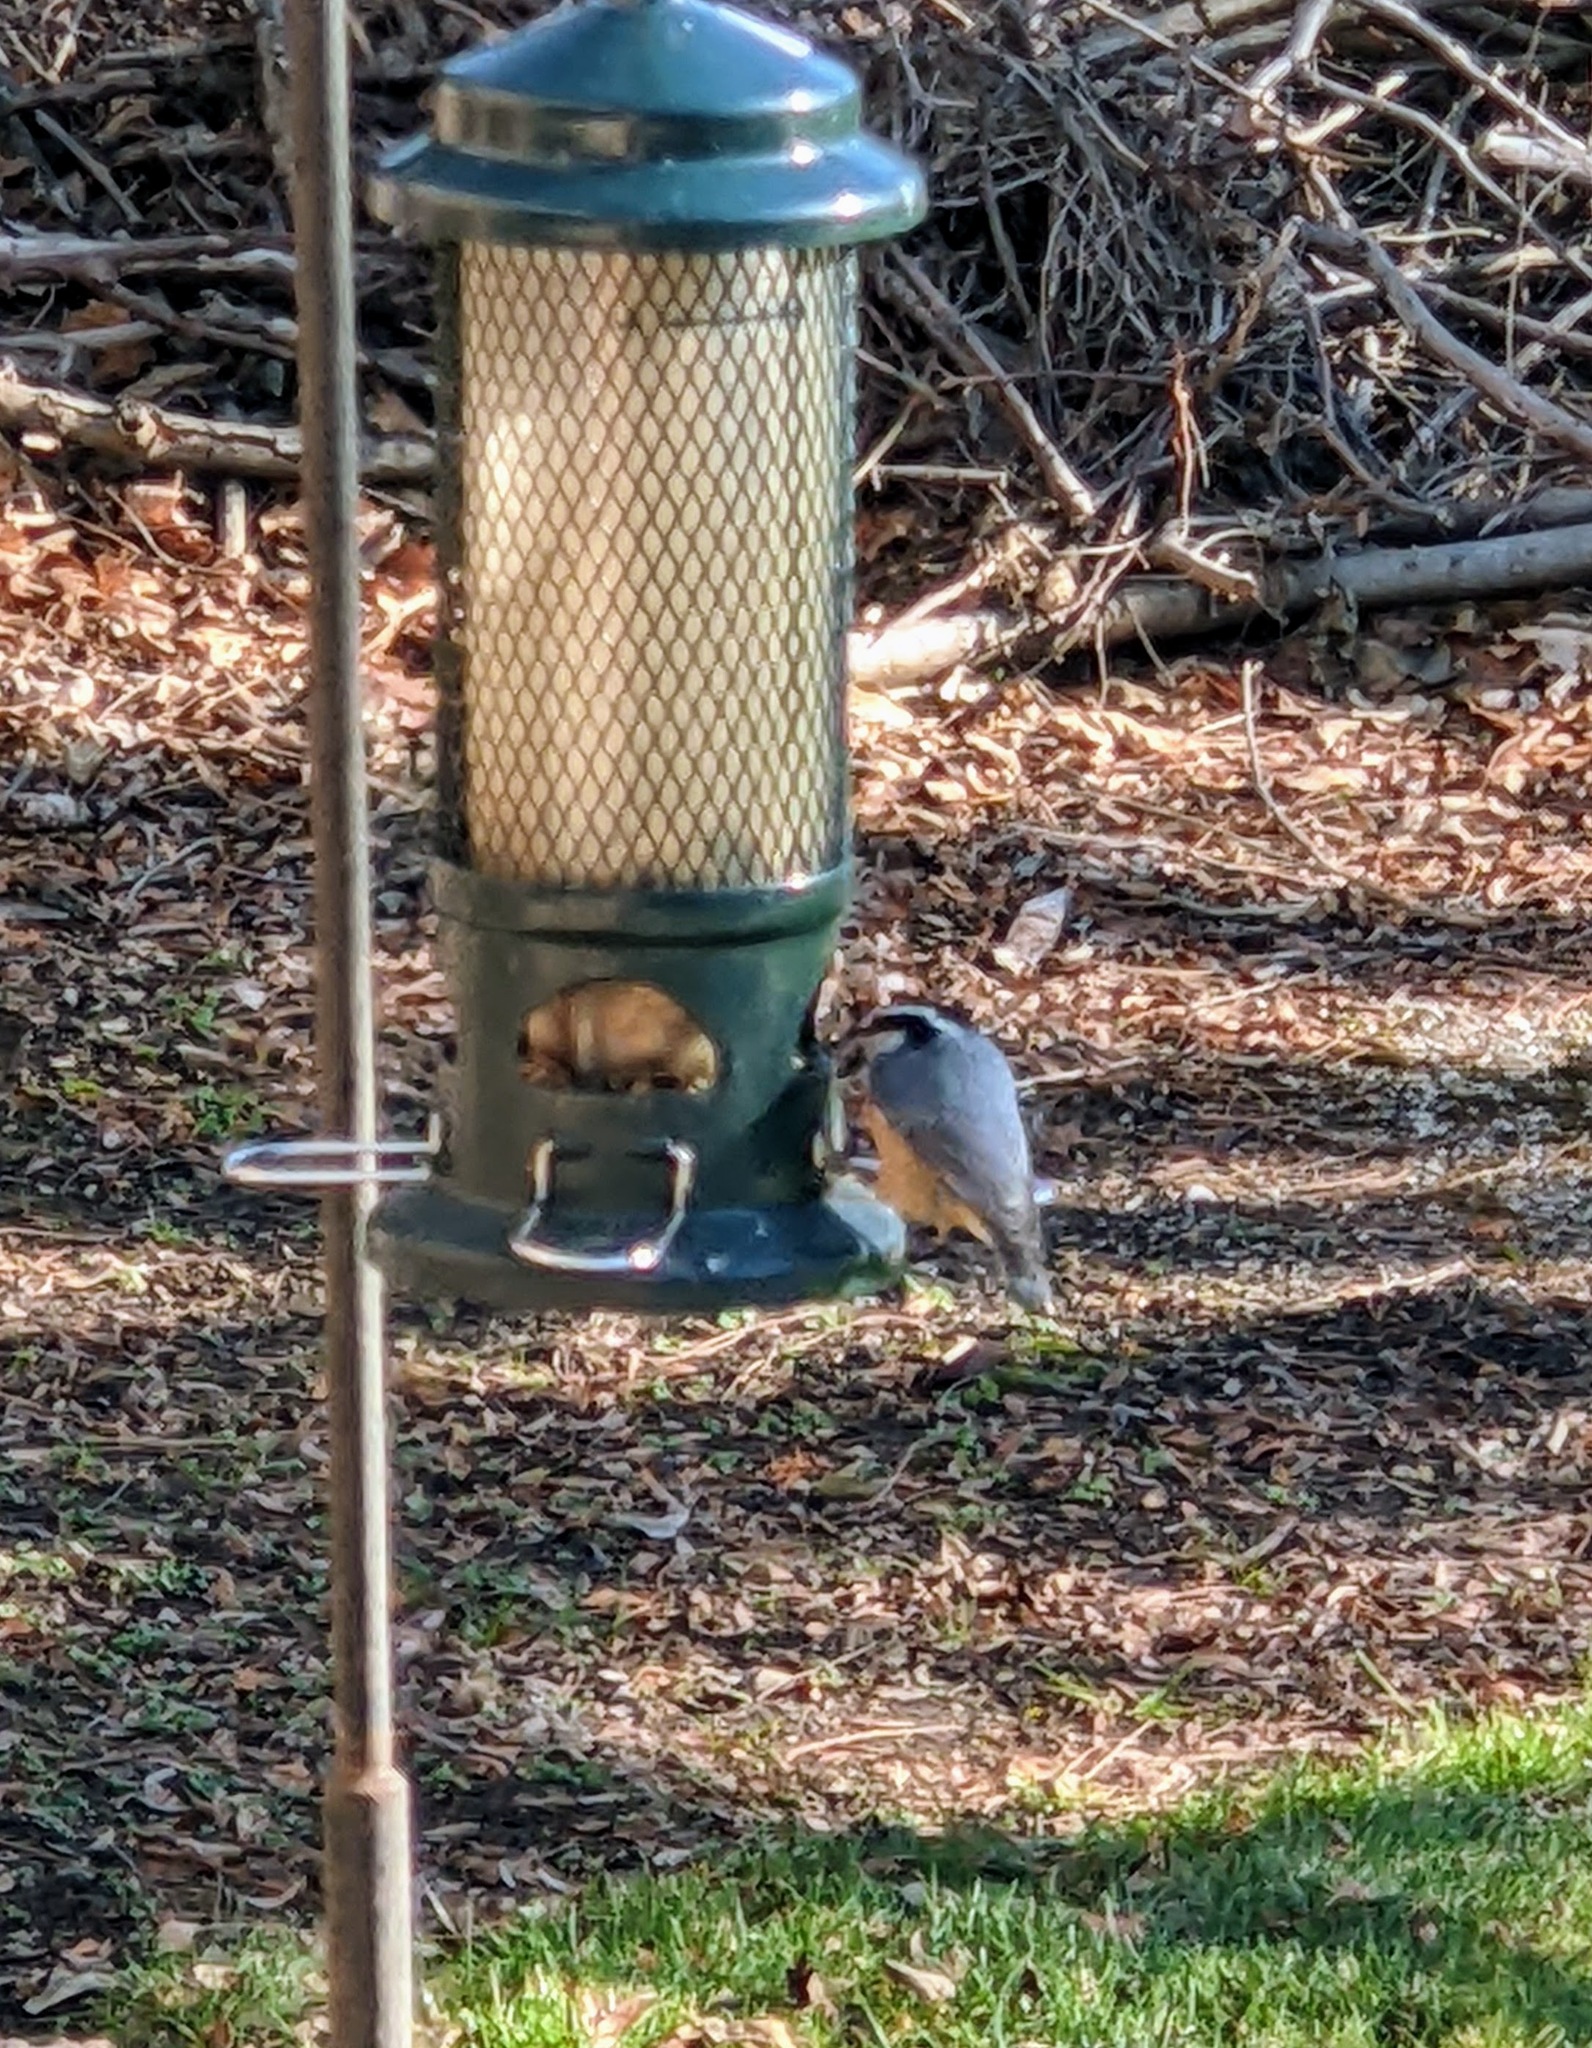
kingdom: Animalia
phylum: Chordata
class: Aves
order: Passeriformes
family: Sittidae
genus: Sitta
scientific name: Sitta canadensis
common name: Red-breasted nuthatch
